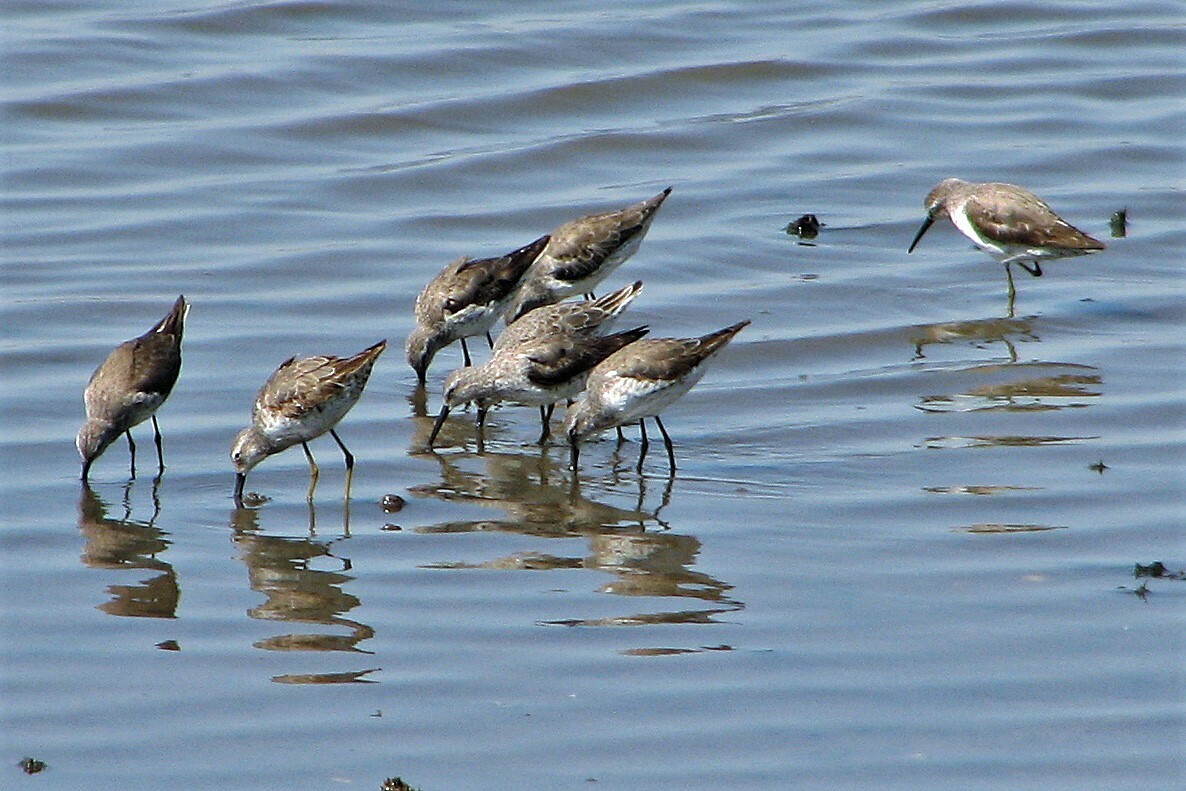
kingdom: Animalia
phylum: Chordata
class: Aves
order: Charadriiformes
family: Scolopacidae
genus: Calidris
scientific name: Calidris himantopus
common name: Stilt sandpiper
